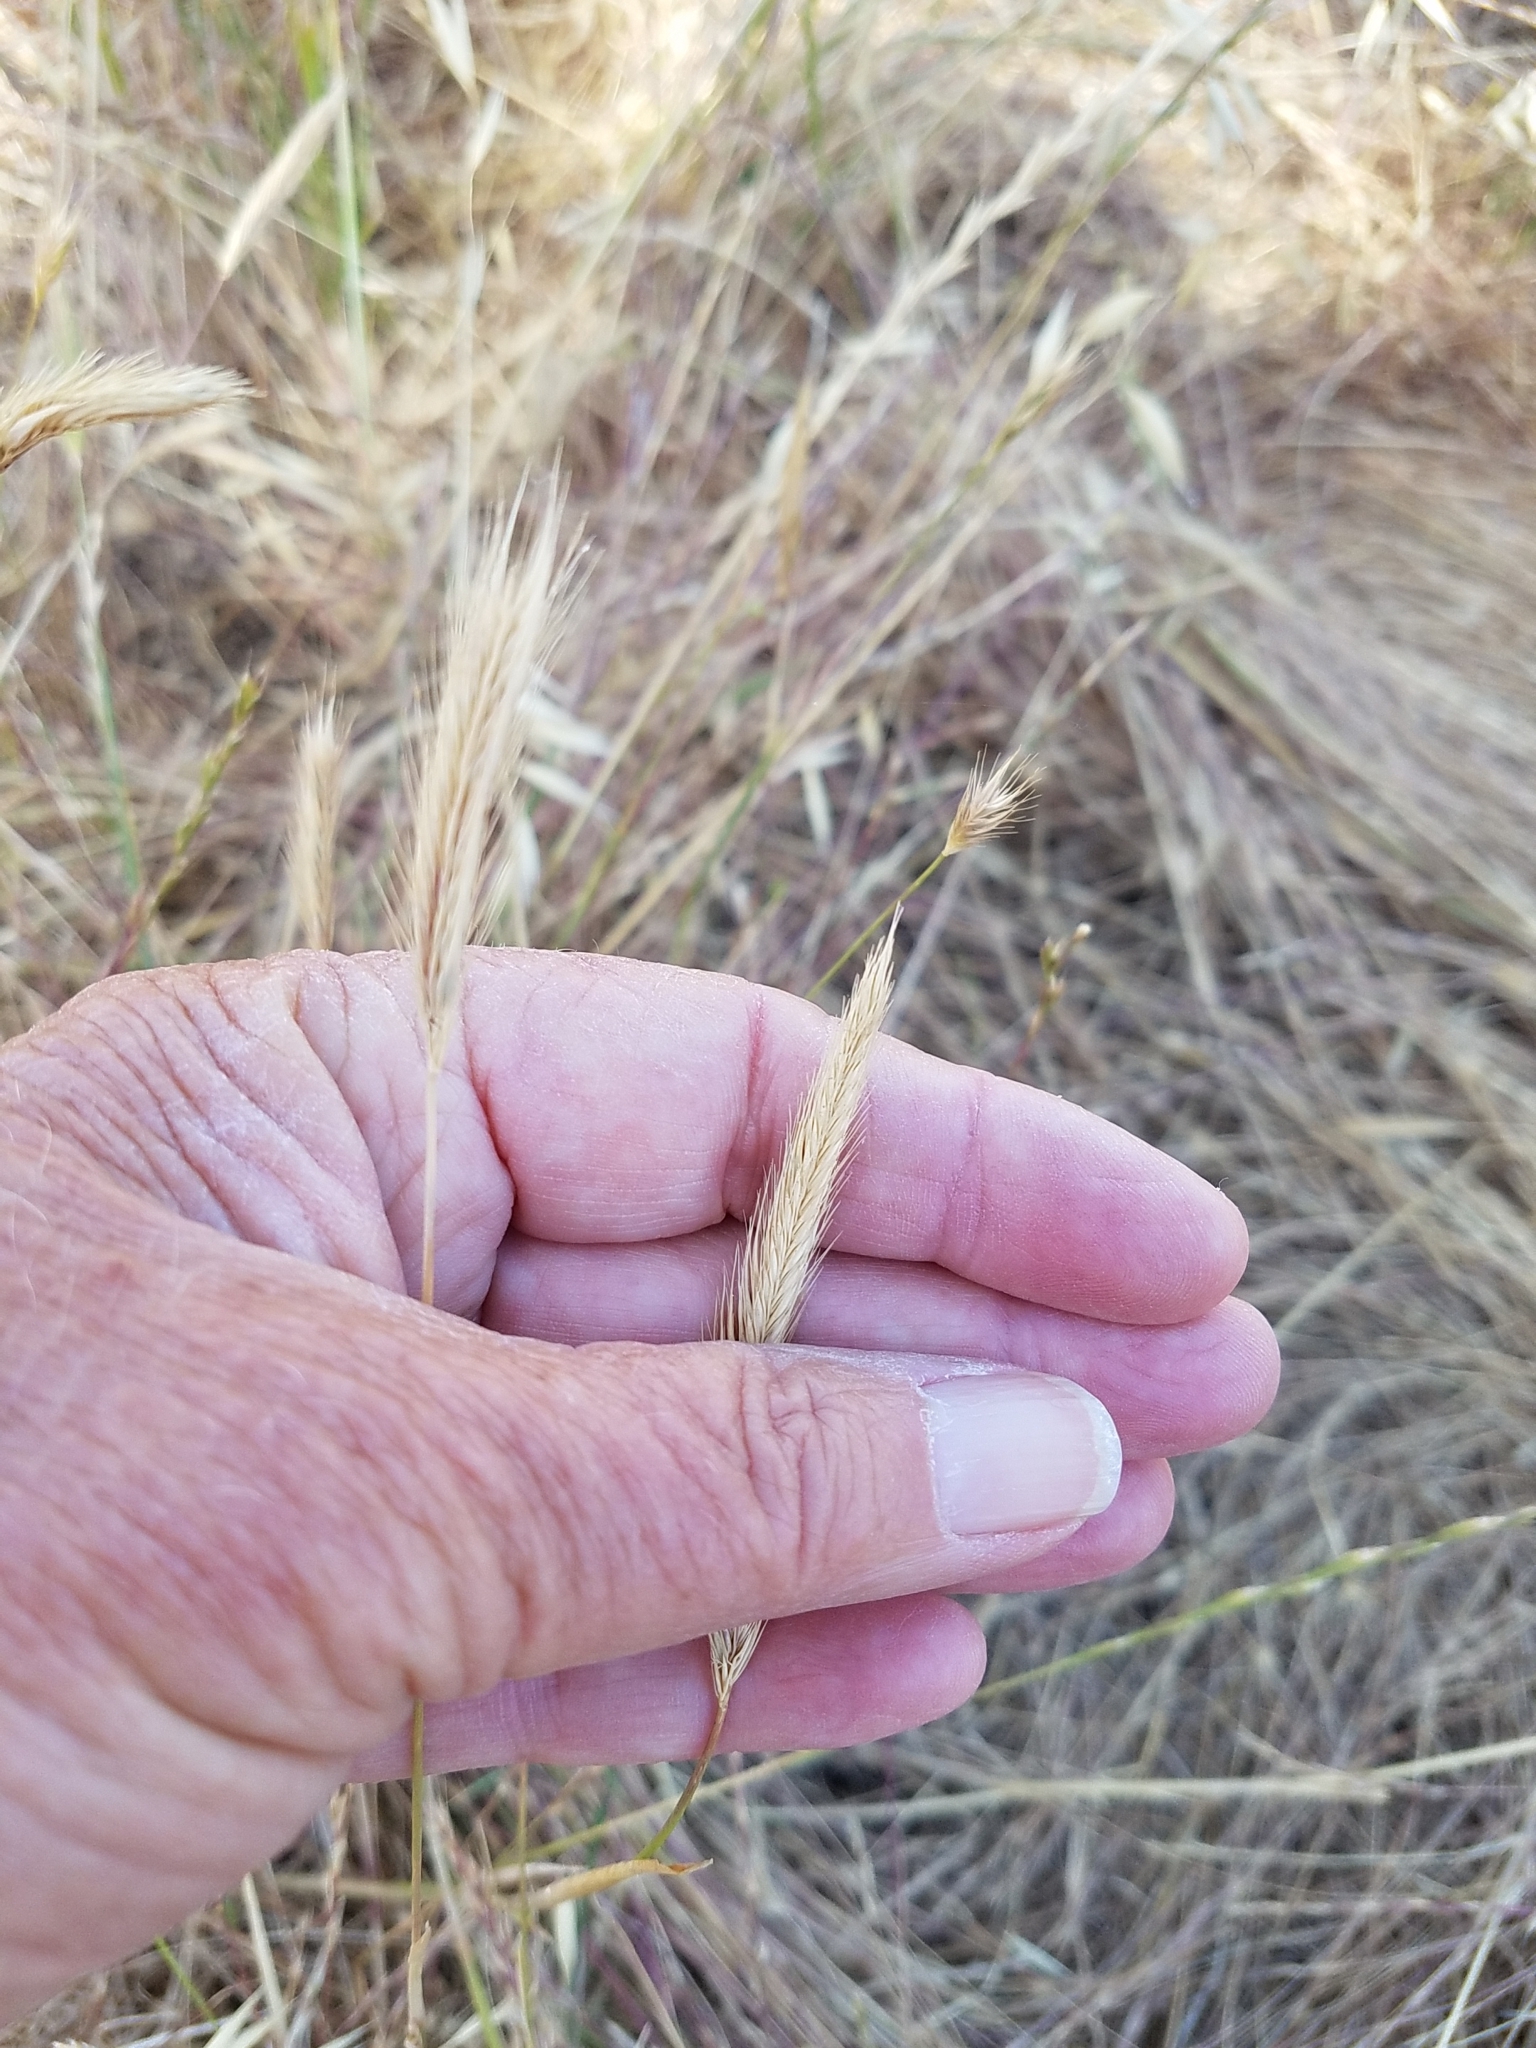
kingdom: Plantae
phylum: Tracheophyta
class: Liliopsida
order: Poales
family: Poaceae
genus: Hordeum
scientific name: Hordeum brachyantherum
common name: Meadow barley
